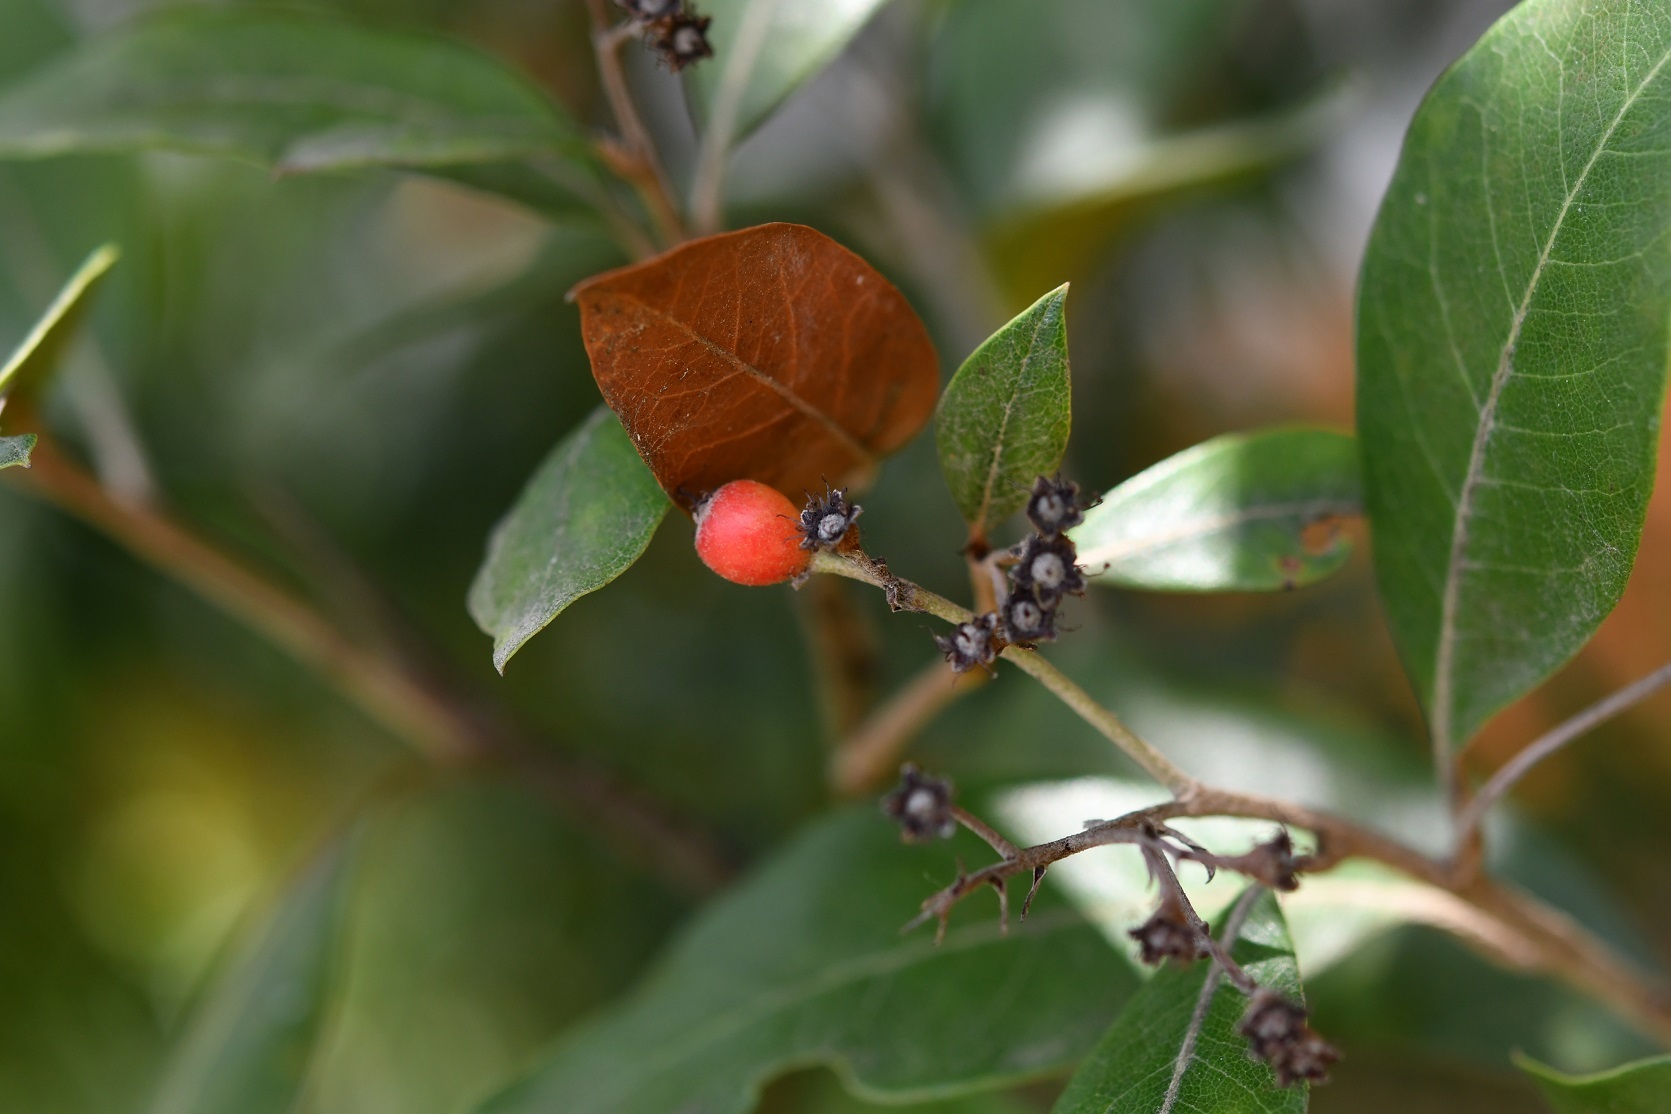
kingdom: Plantae
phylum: Tracheophyta
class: Magnoliopsida
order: Rosales
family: Rosaceae
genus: Phippsiomeles
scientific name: Phippsiomeles matudae
